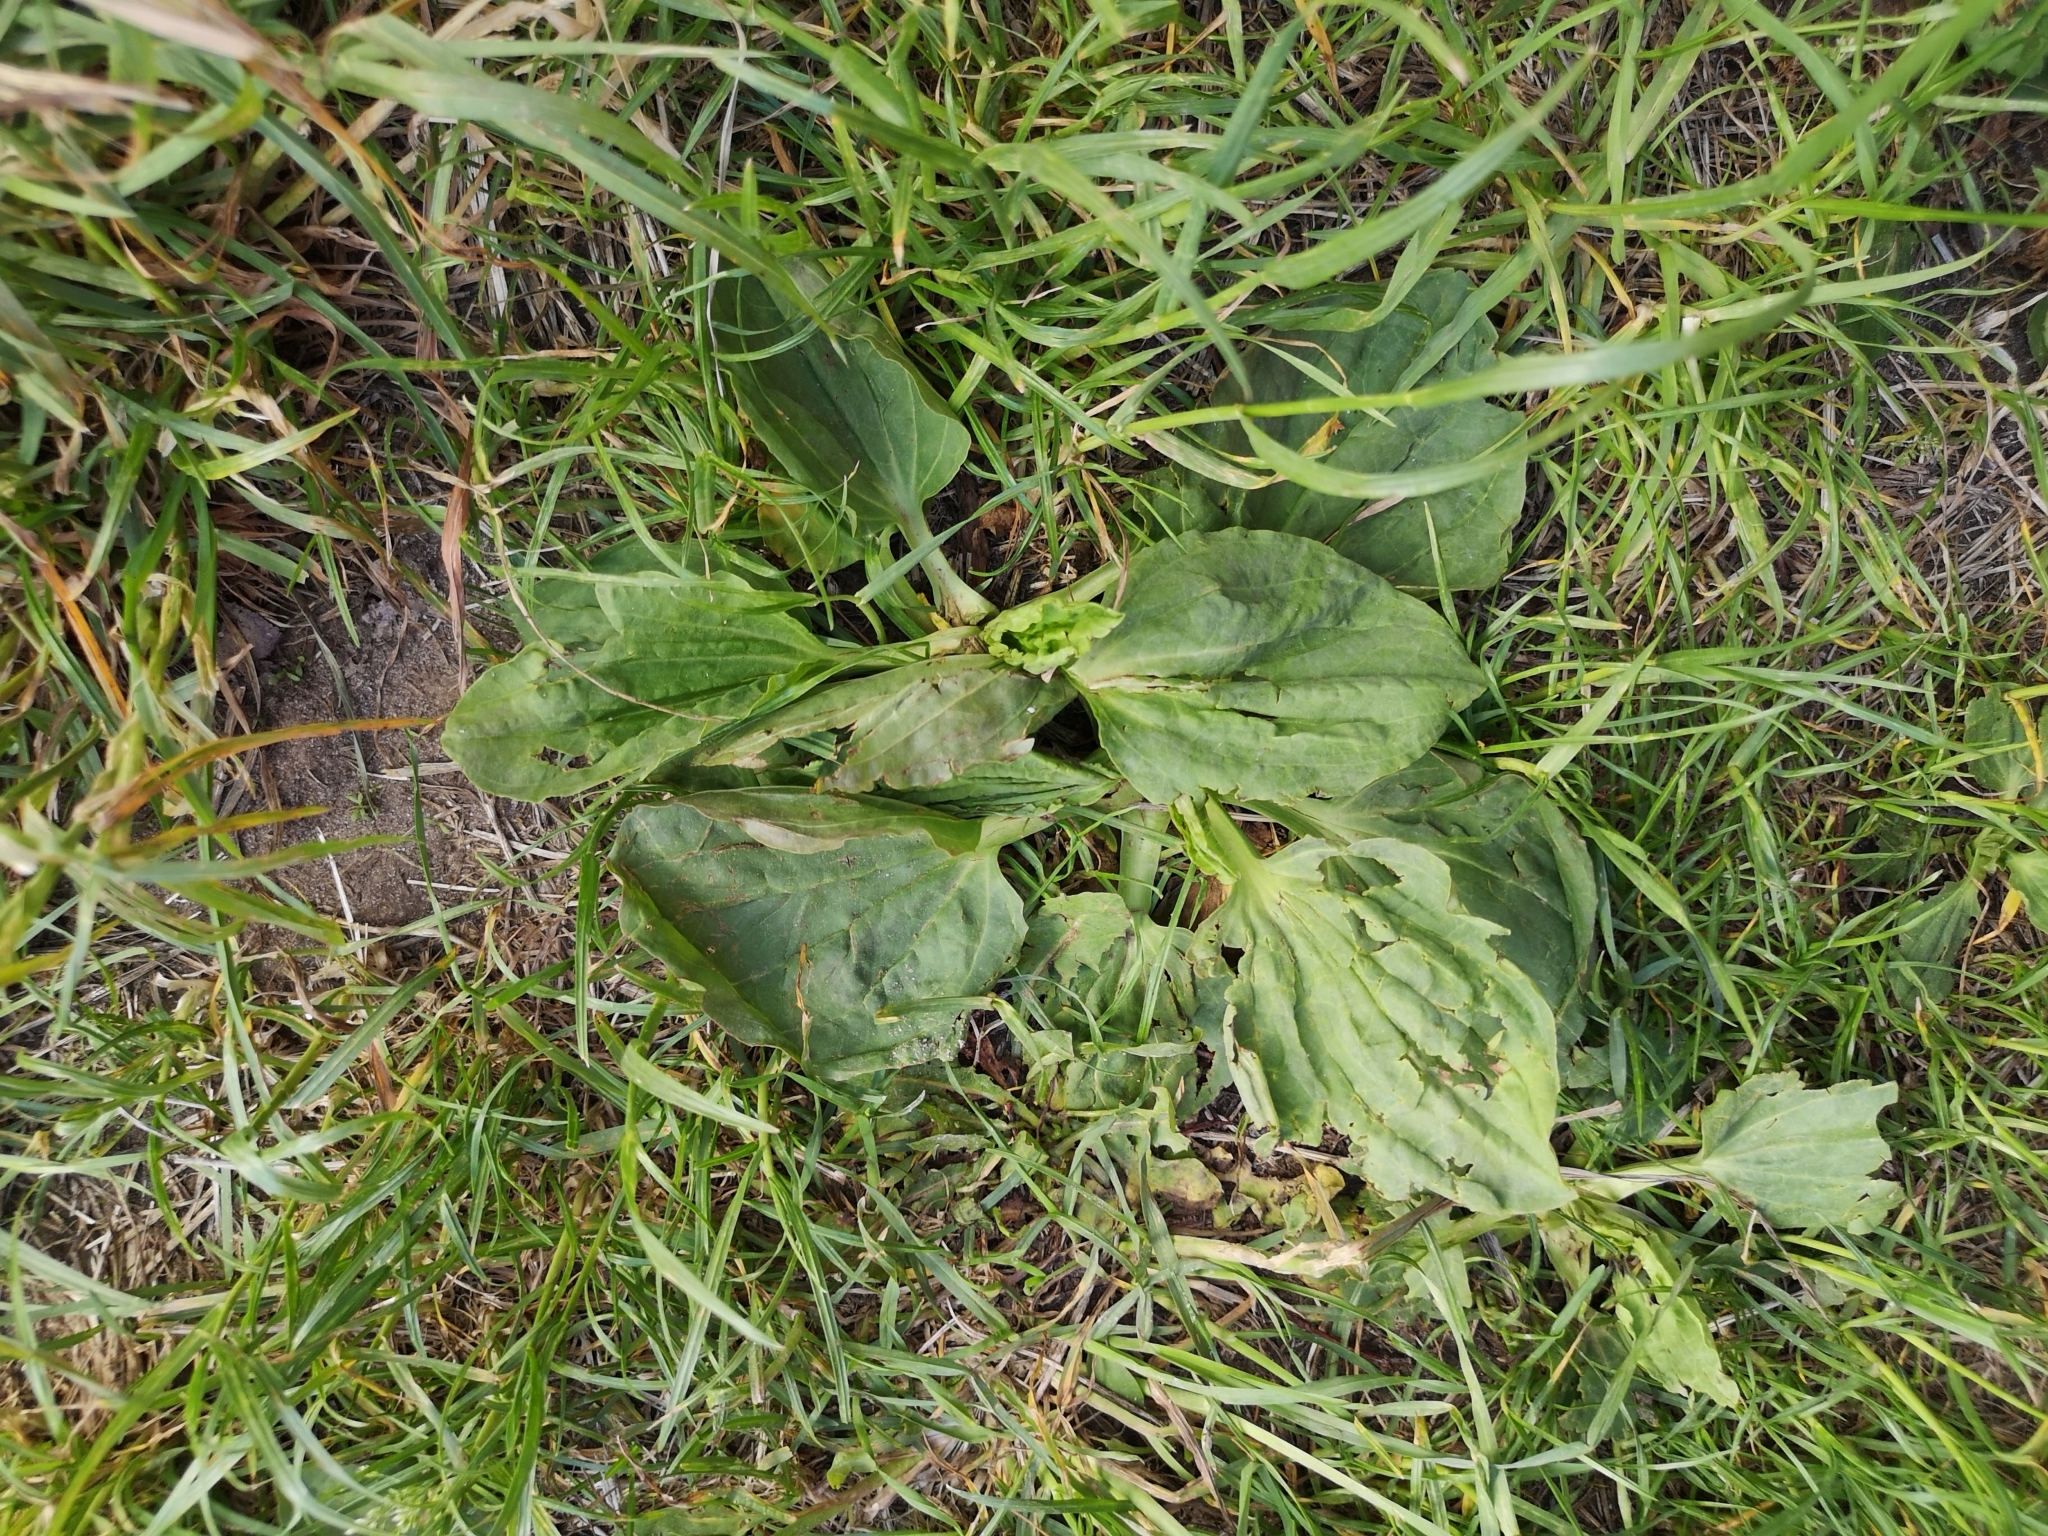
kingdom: Plantae
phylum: Tracheophyta
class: Magnoliopsida
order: Lamiales
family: Plantaginaceae
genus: Plantago
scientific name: Plantago major
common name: Common plantain
